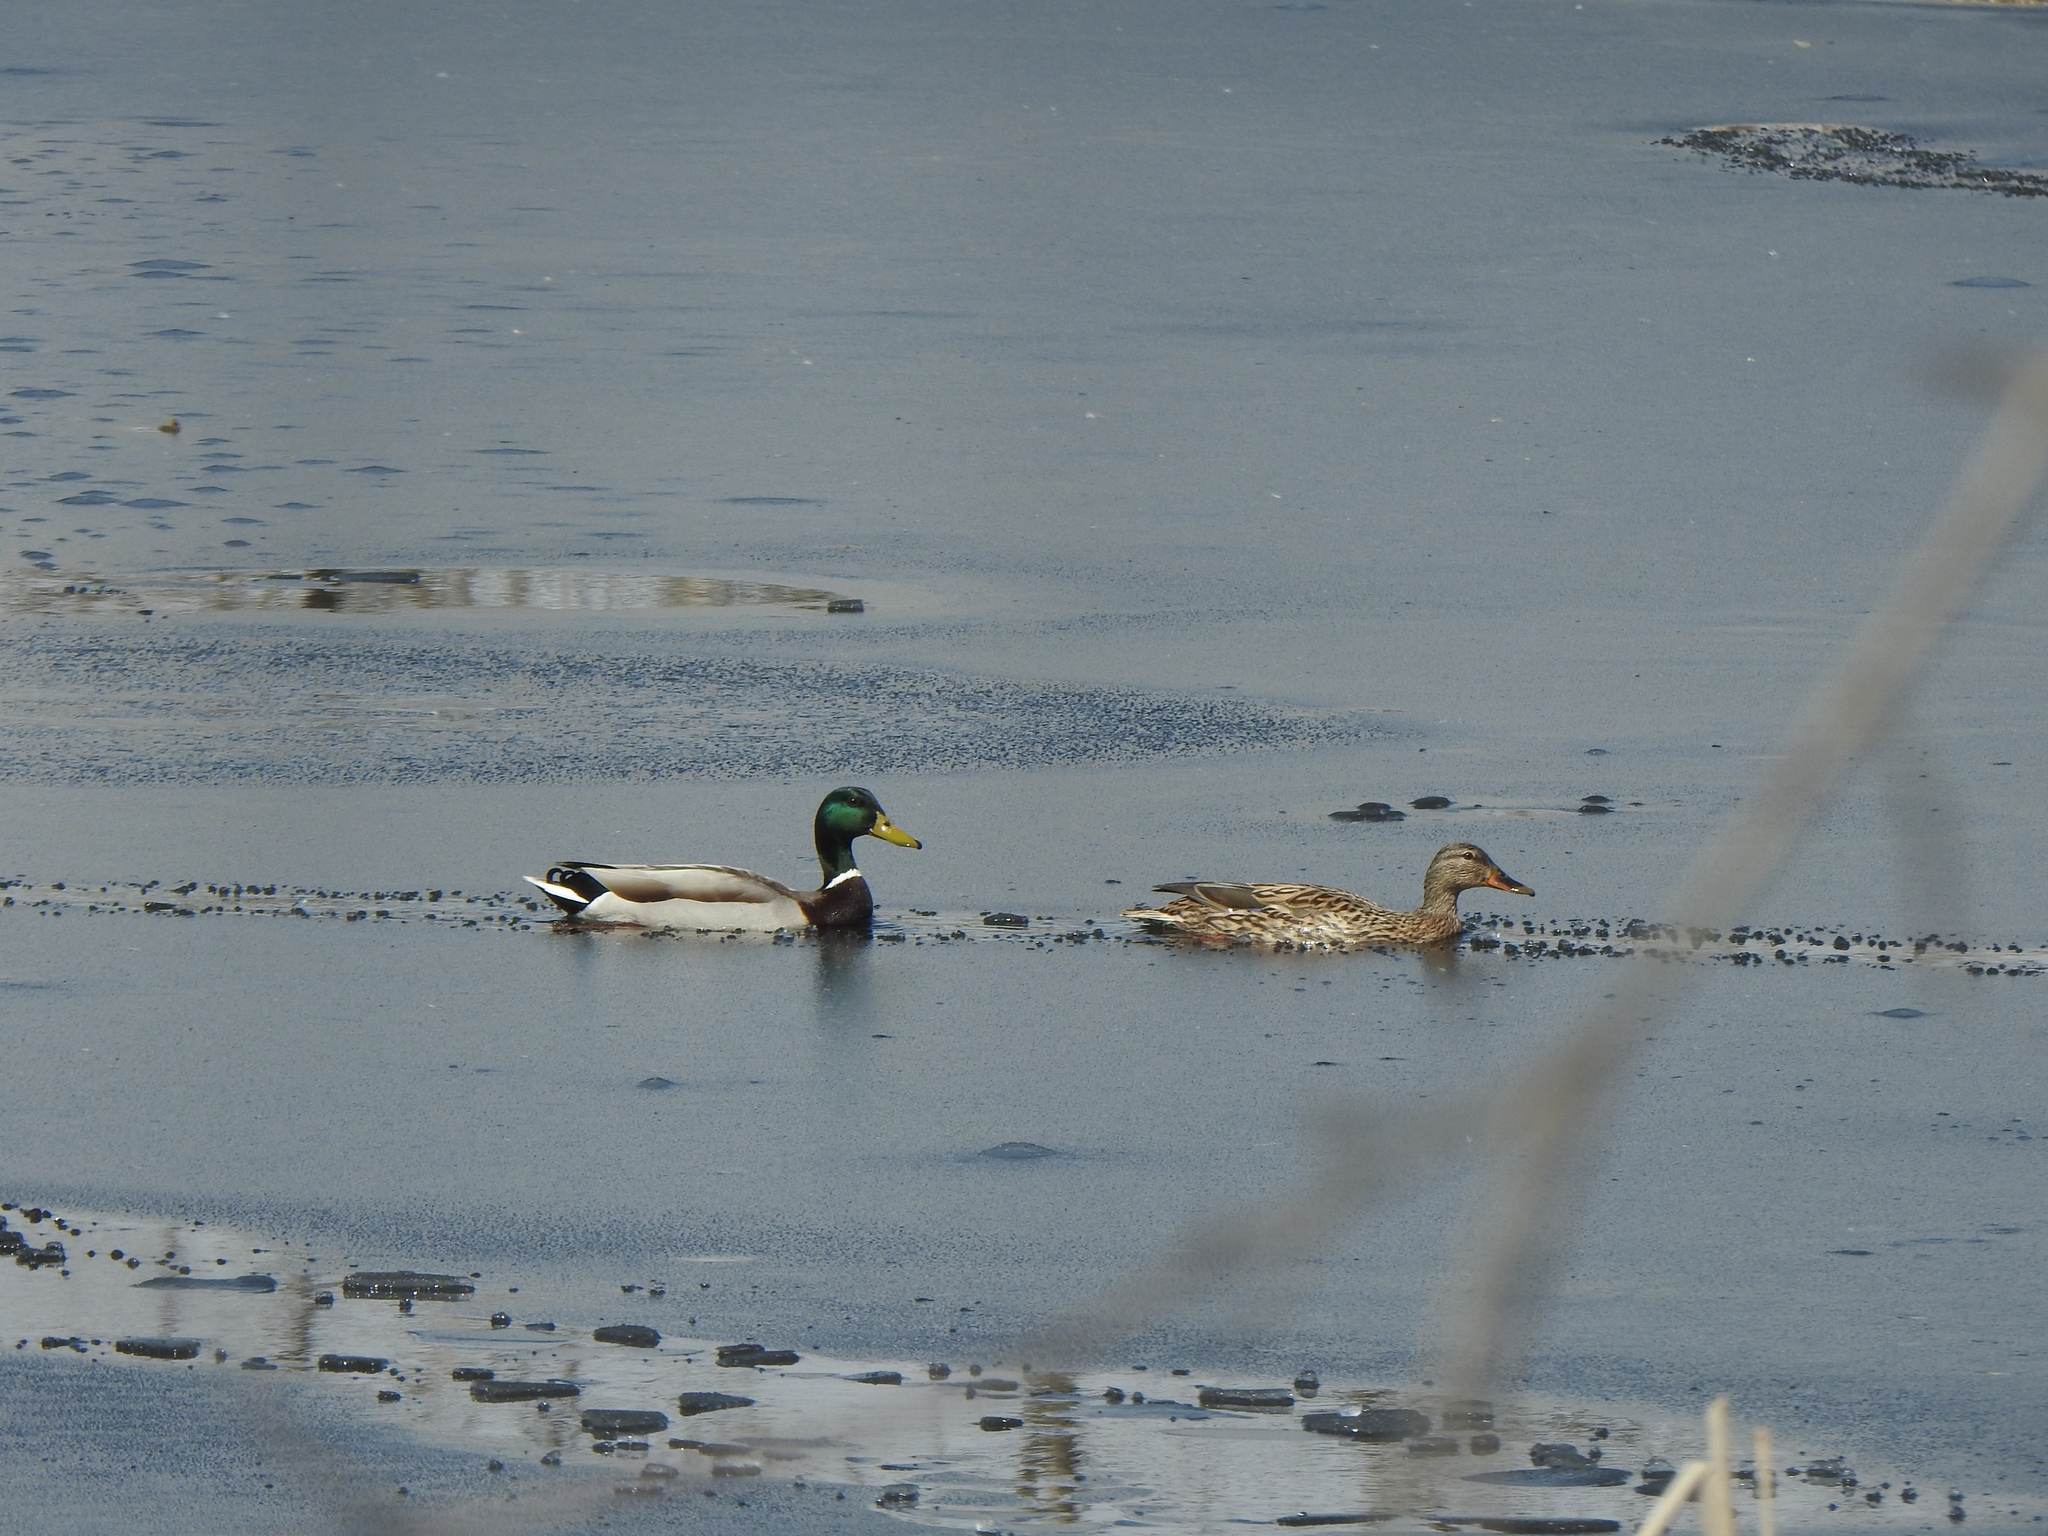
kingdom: Animalia
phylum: Chordata
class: Aves
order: Anseriformes
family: Anatidae
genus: Anas
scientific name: Anas platyrhynchos
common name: Mallard
